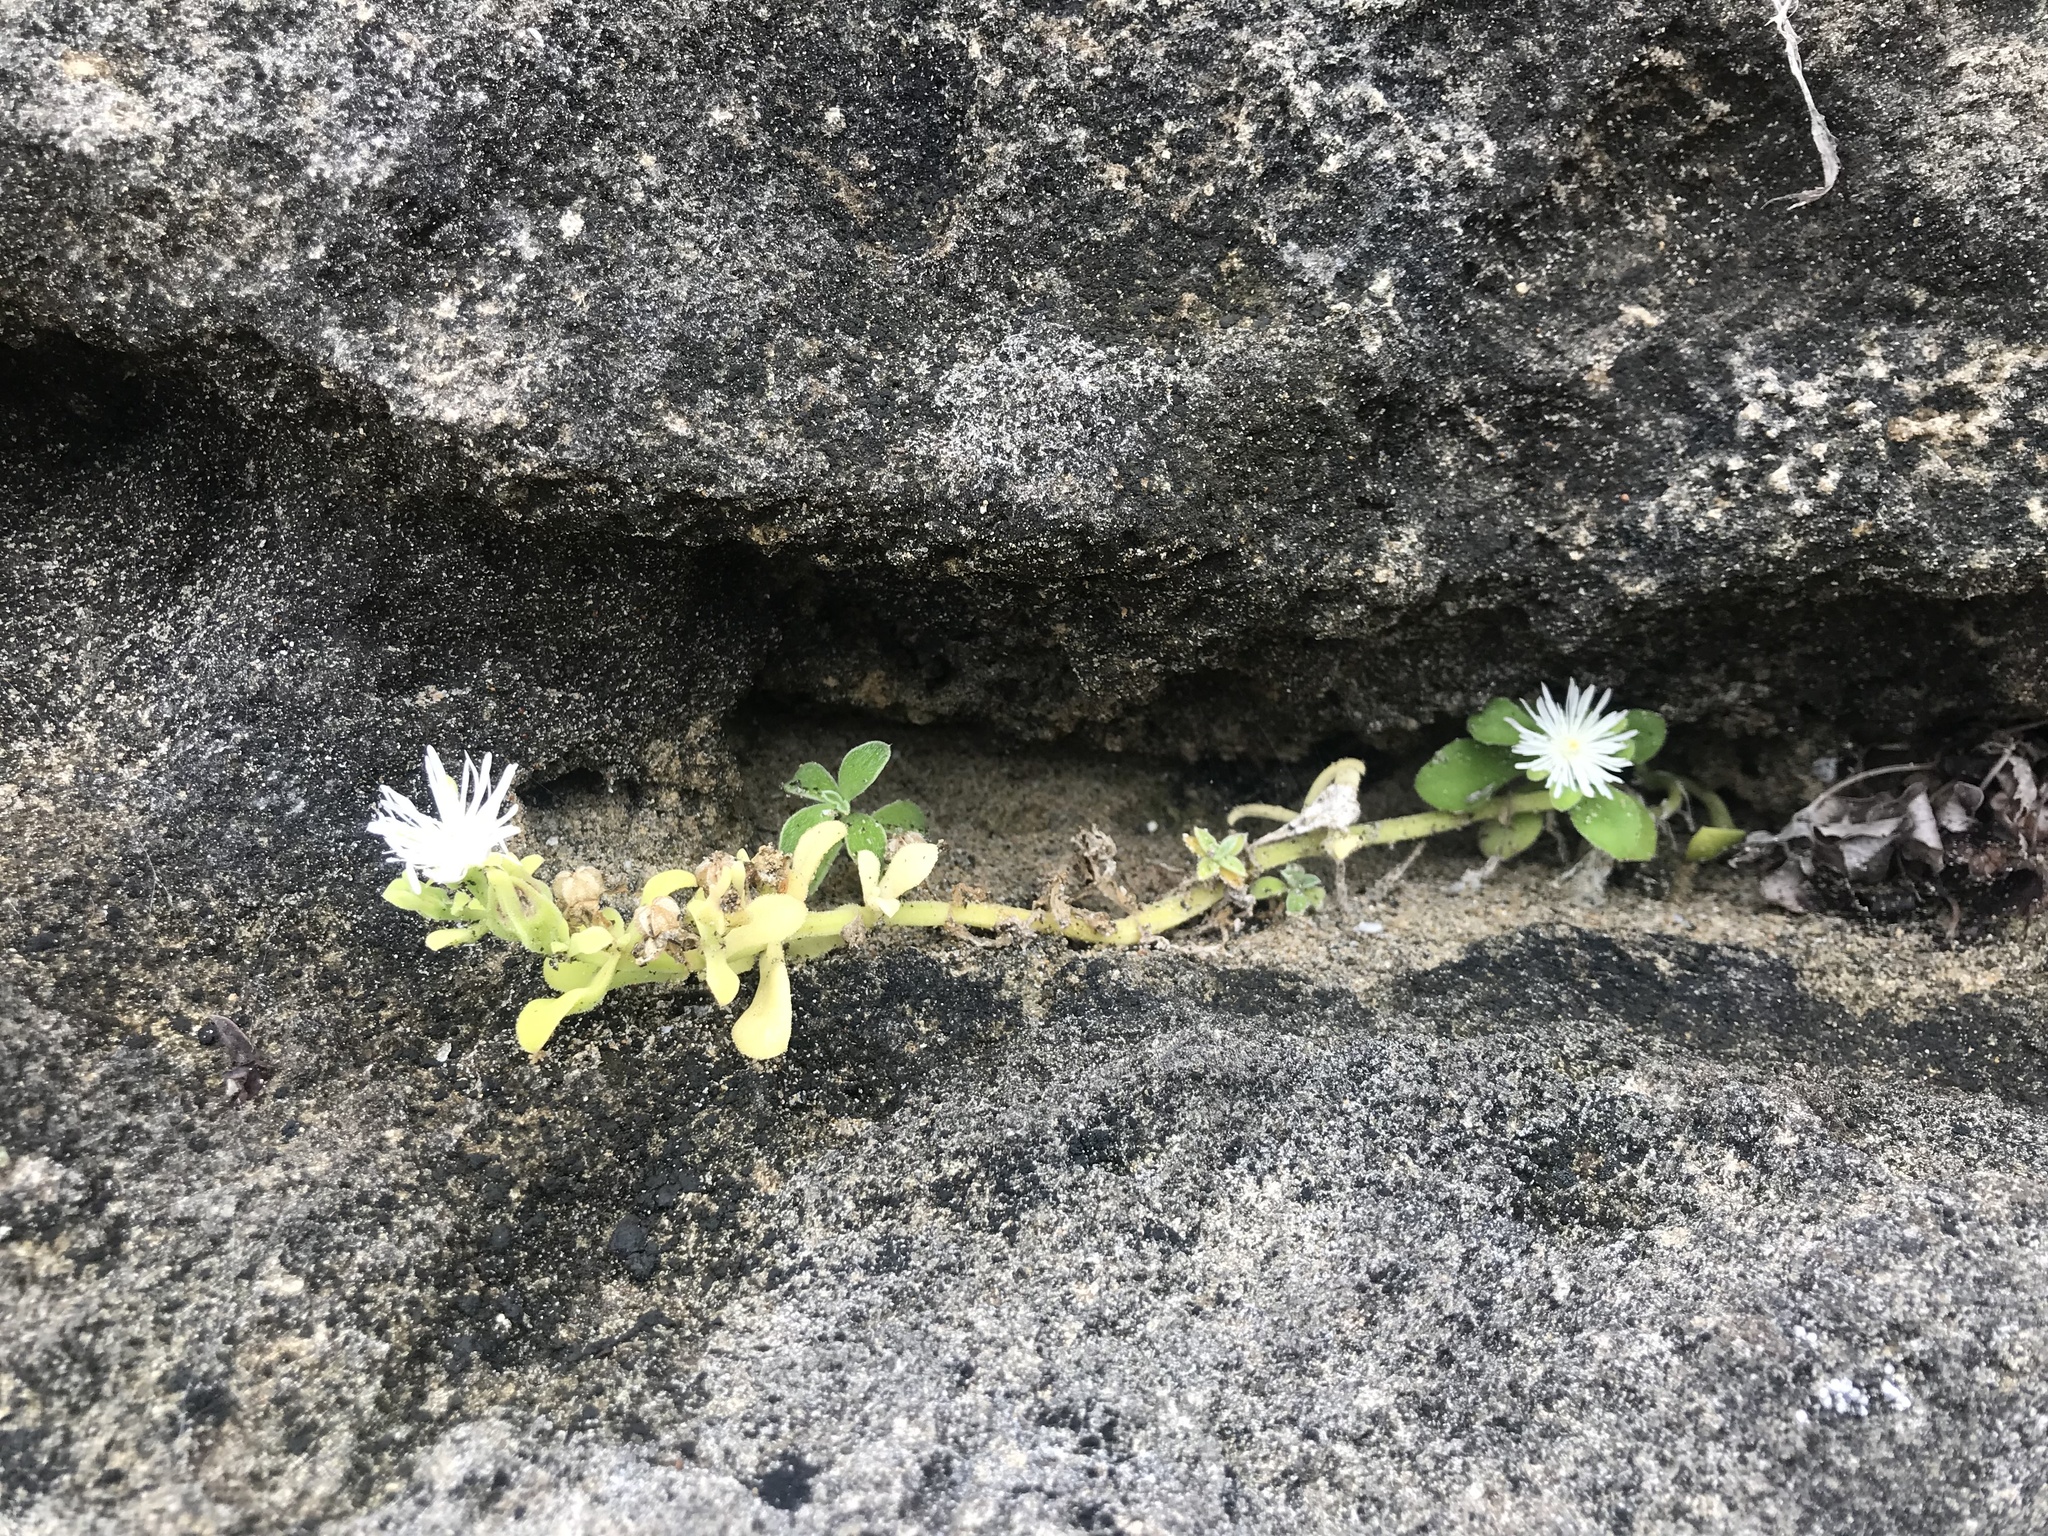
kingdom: Plantae
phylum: Tracheophyta
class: Magnoliopsida
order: Caryophyllales
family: Aizoaceae
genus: Mesembryanthemum
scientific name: Mesembryanthemum aitonis
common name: Angled iceplant
